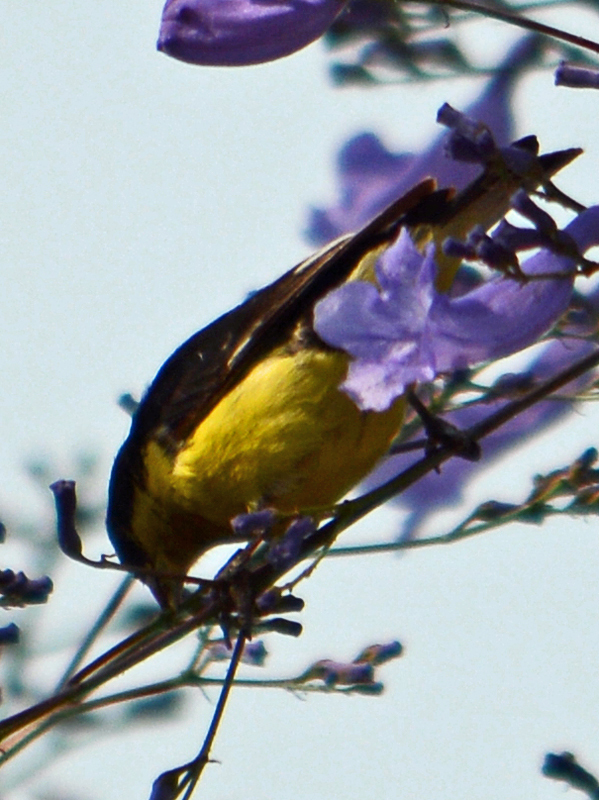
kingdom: Animalia
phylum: Chordata
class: Aves
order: Passeriformes
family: Fringillidae
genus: Spinus
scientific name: Spinus psaltria
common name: Lesser goldfinch
